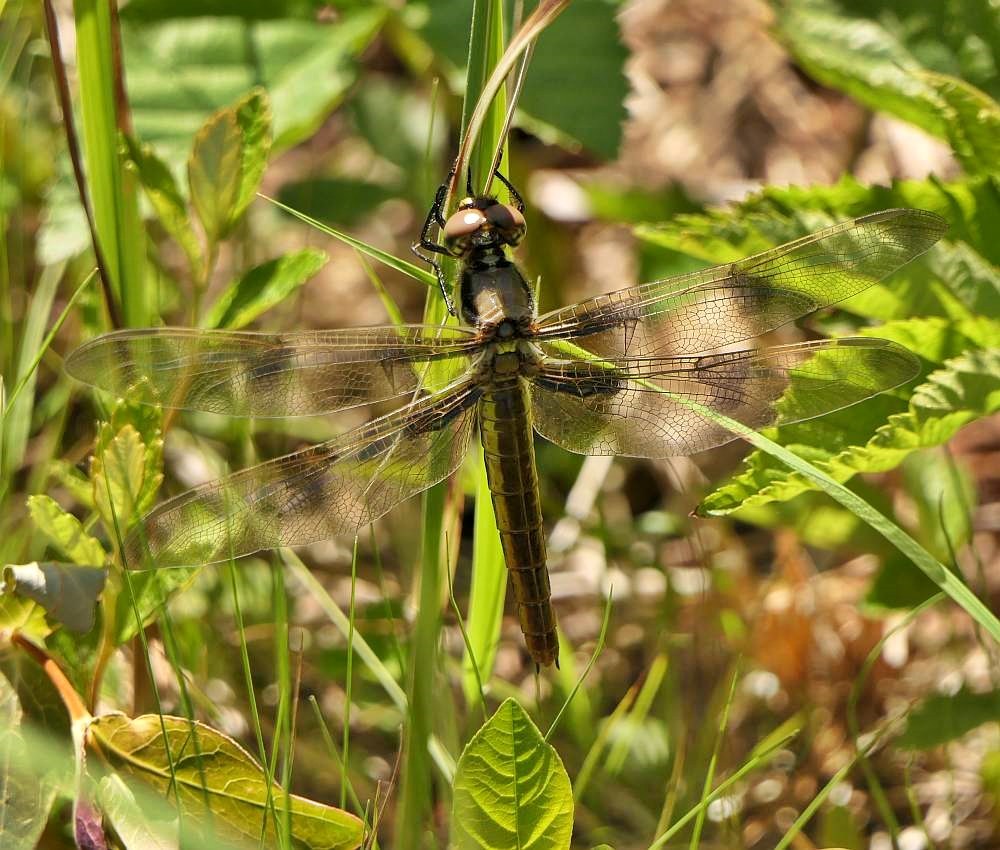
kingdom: Animalia
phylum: Arthropoda
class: Insecta
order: Odonata
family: Libellulidae
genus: Libellula
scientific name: Libellula pulchella
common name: Twelve-spotted skimmer
